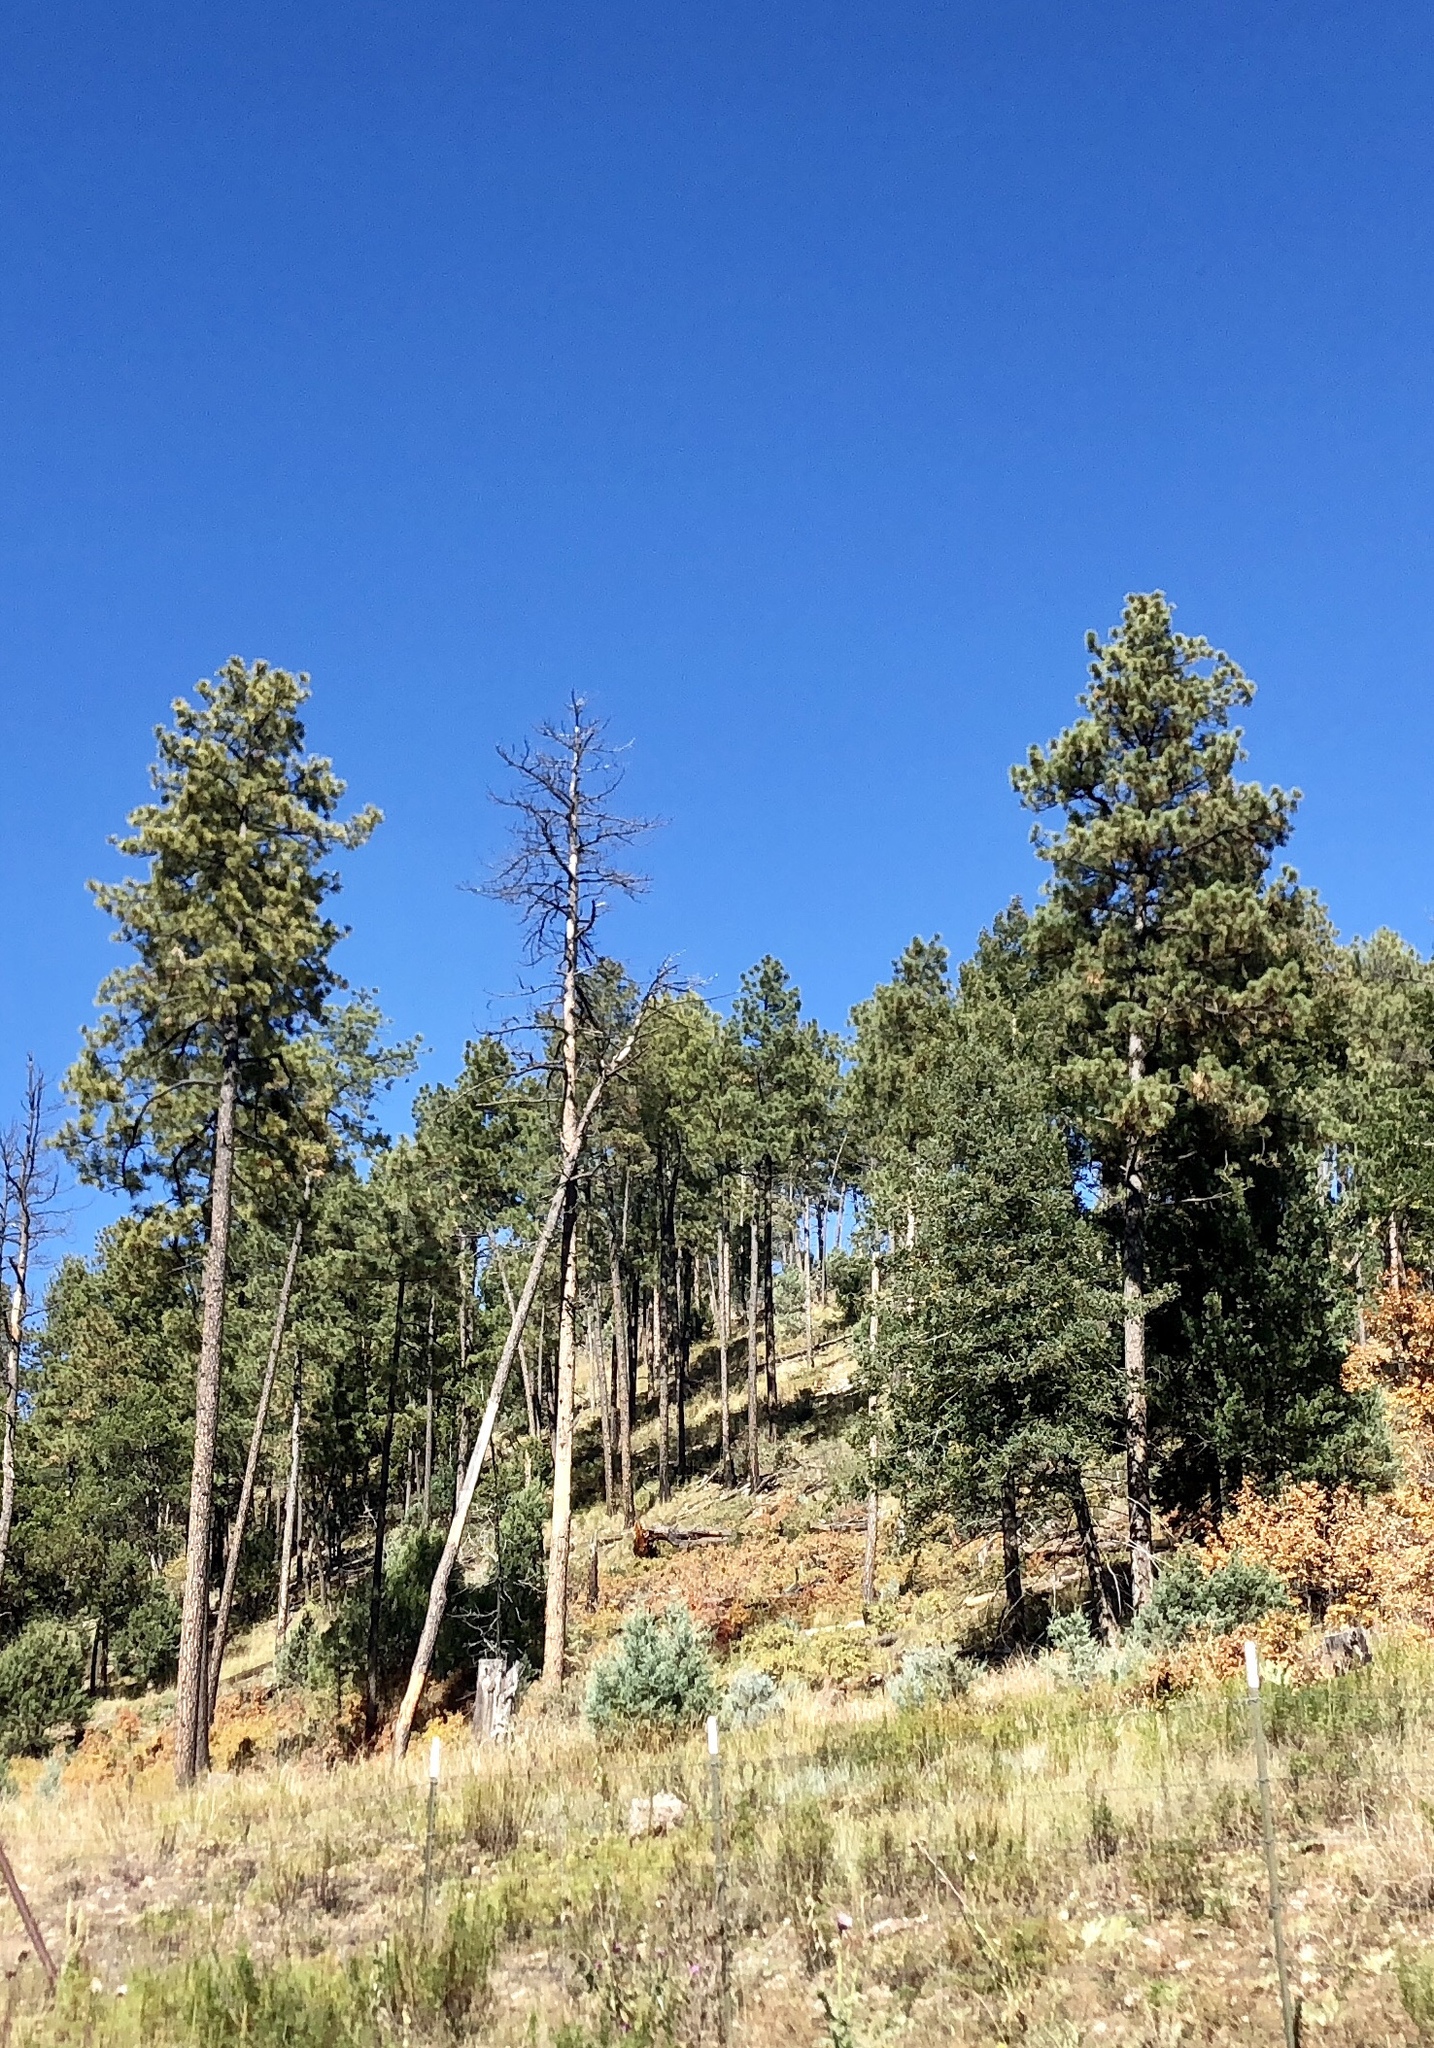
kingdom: Plantae
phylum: Tracheophyta
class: Pinopsida
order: Pinales
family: Pinaceae
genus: Pinus
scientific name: Pinus ponderosa
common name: Western yellow-pine
